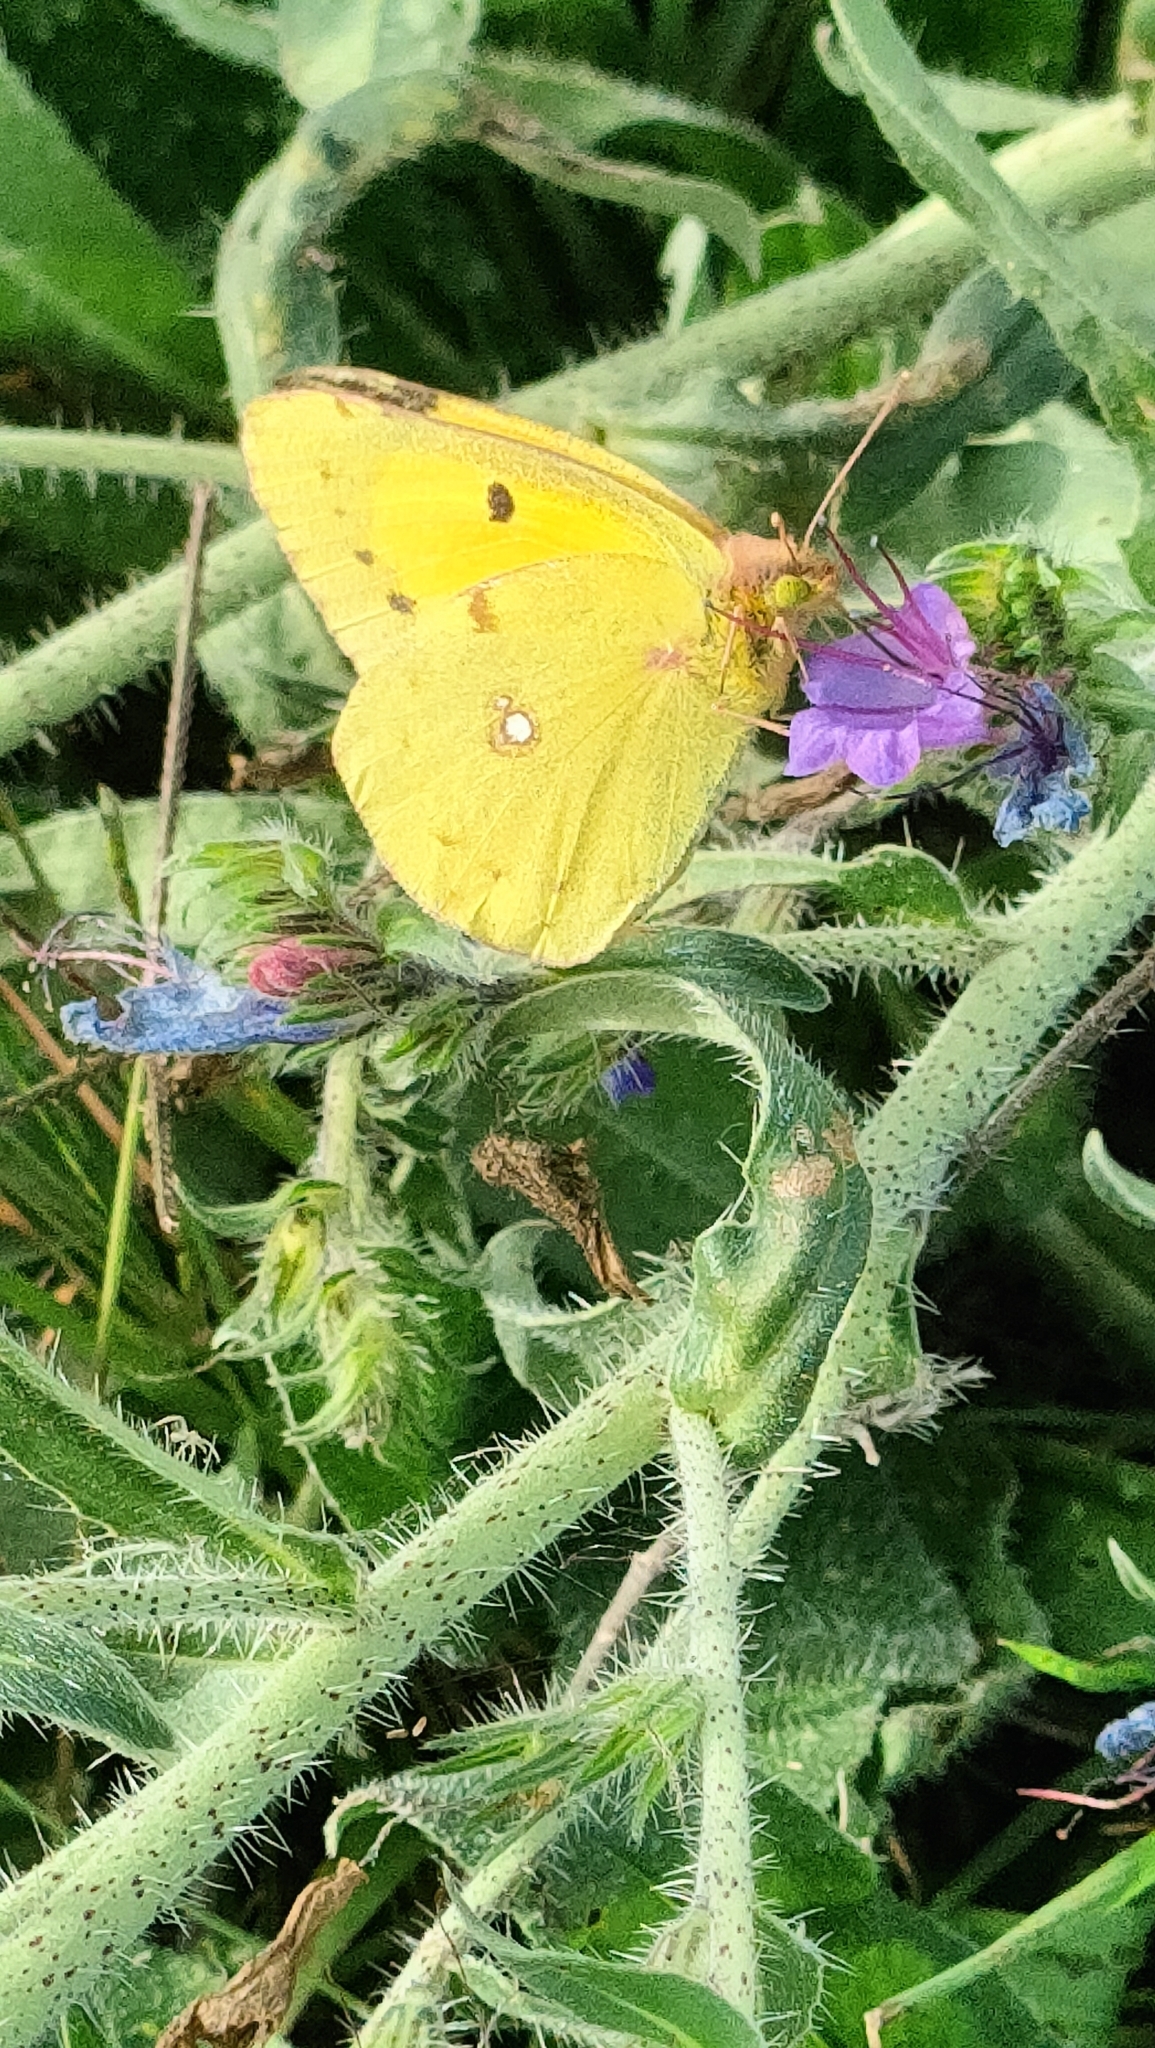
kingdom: Animalia
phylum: Arthropoda
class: Insecta
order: Lepidoptera
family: Pieridae
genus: Colias
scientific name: Colias croceus
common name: Clouded yellow
